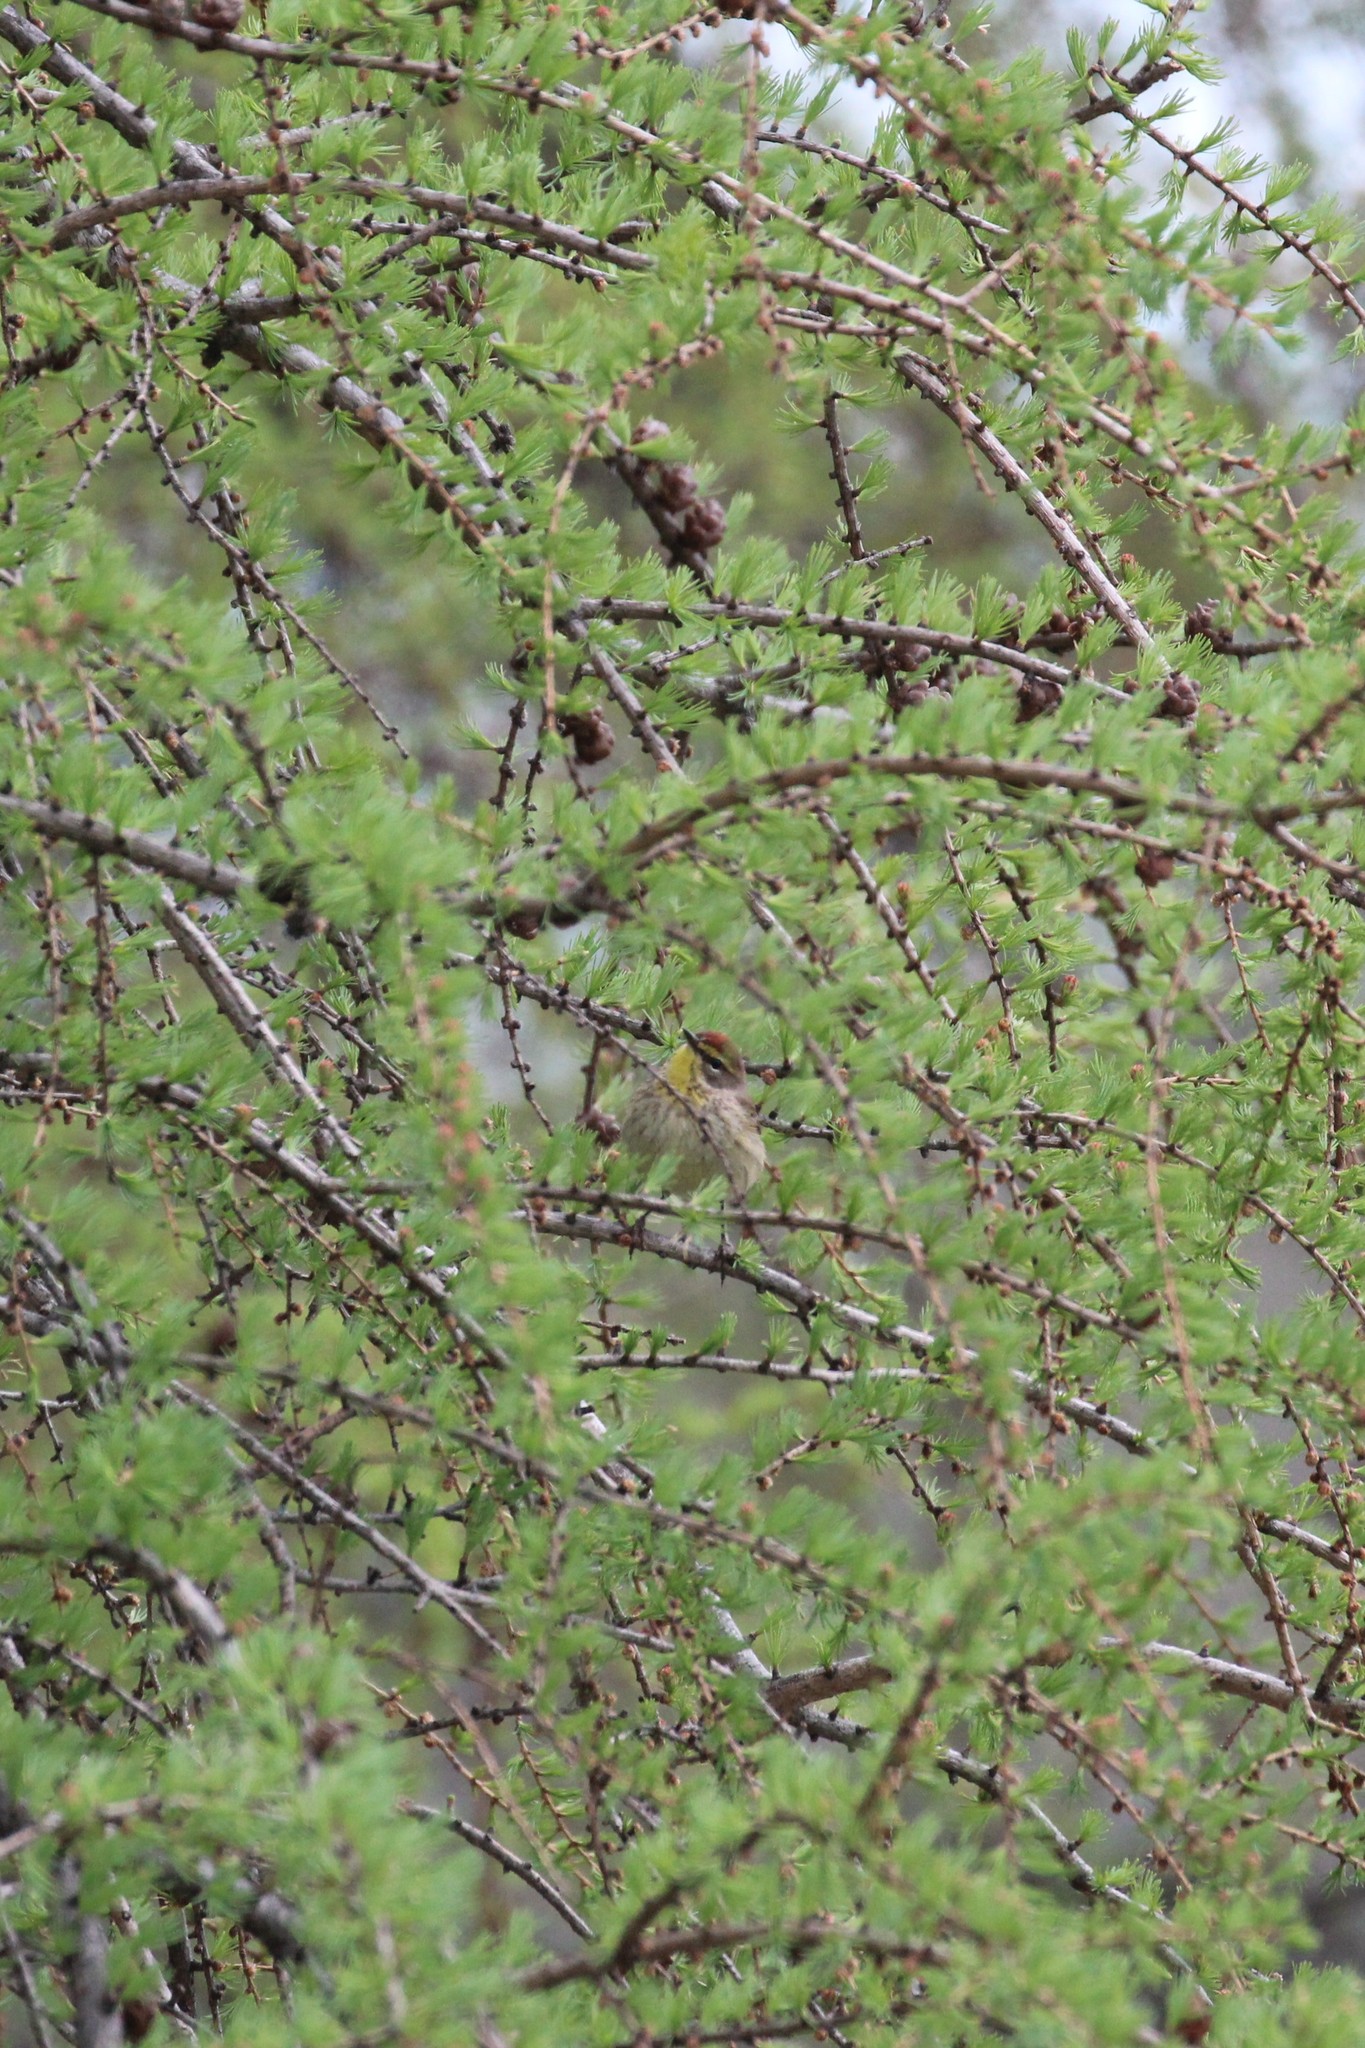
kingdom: Animalia
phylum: Chordata
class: Aves
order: Passeriformes
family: Parulidae
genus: Setophaga
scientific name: Setophaga palmarum
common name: Palm warbler
